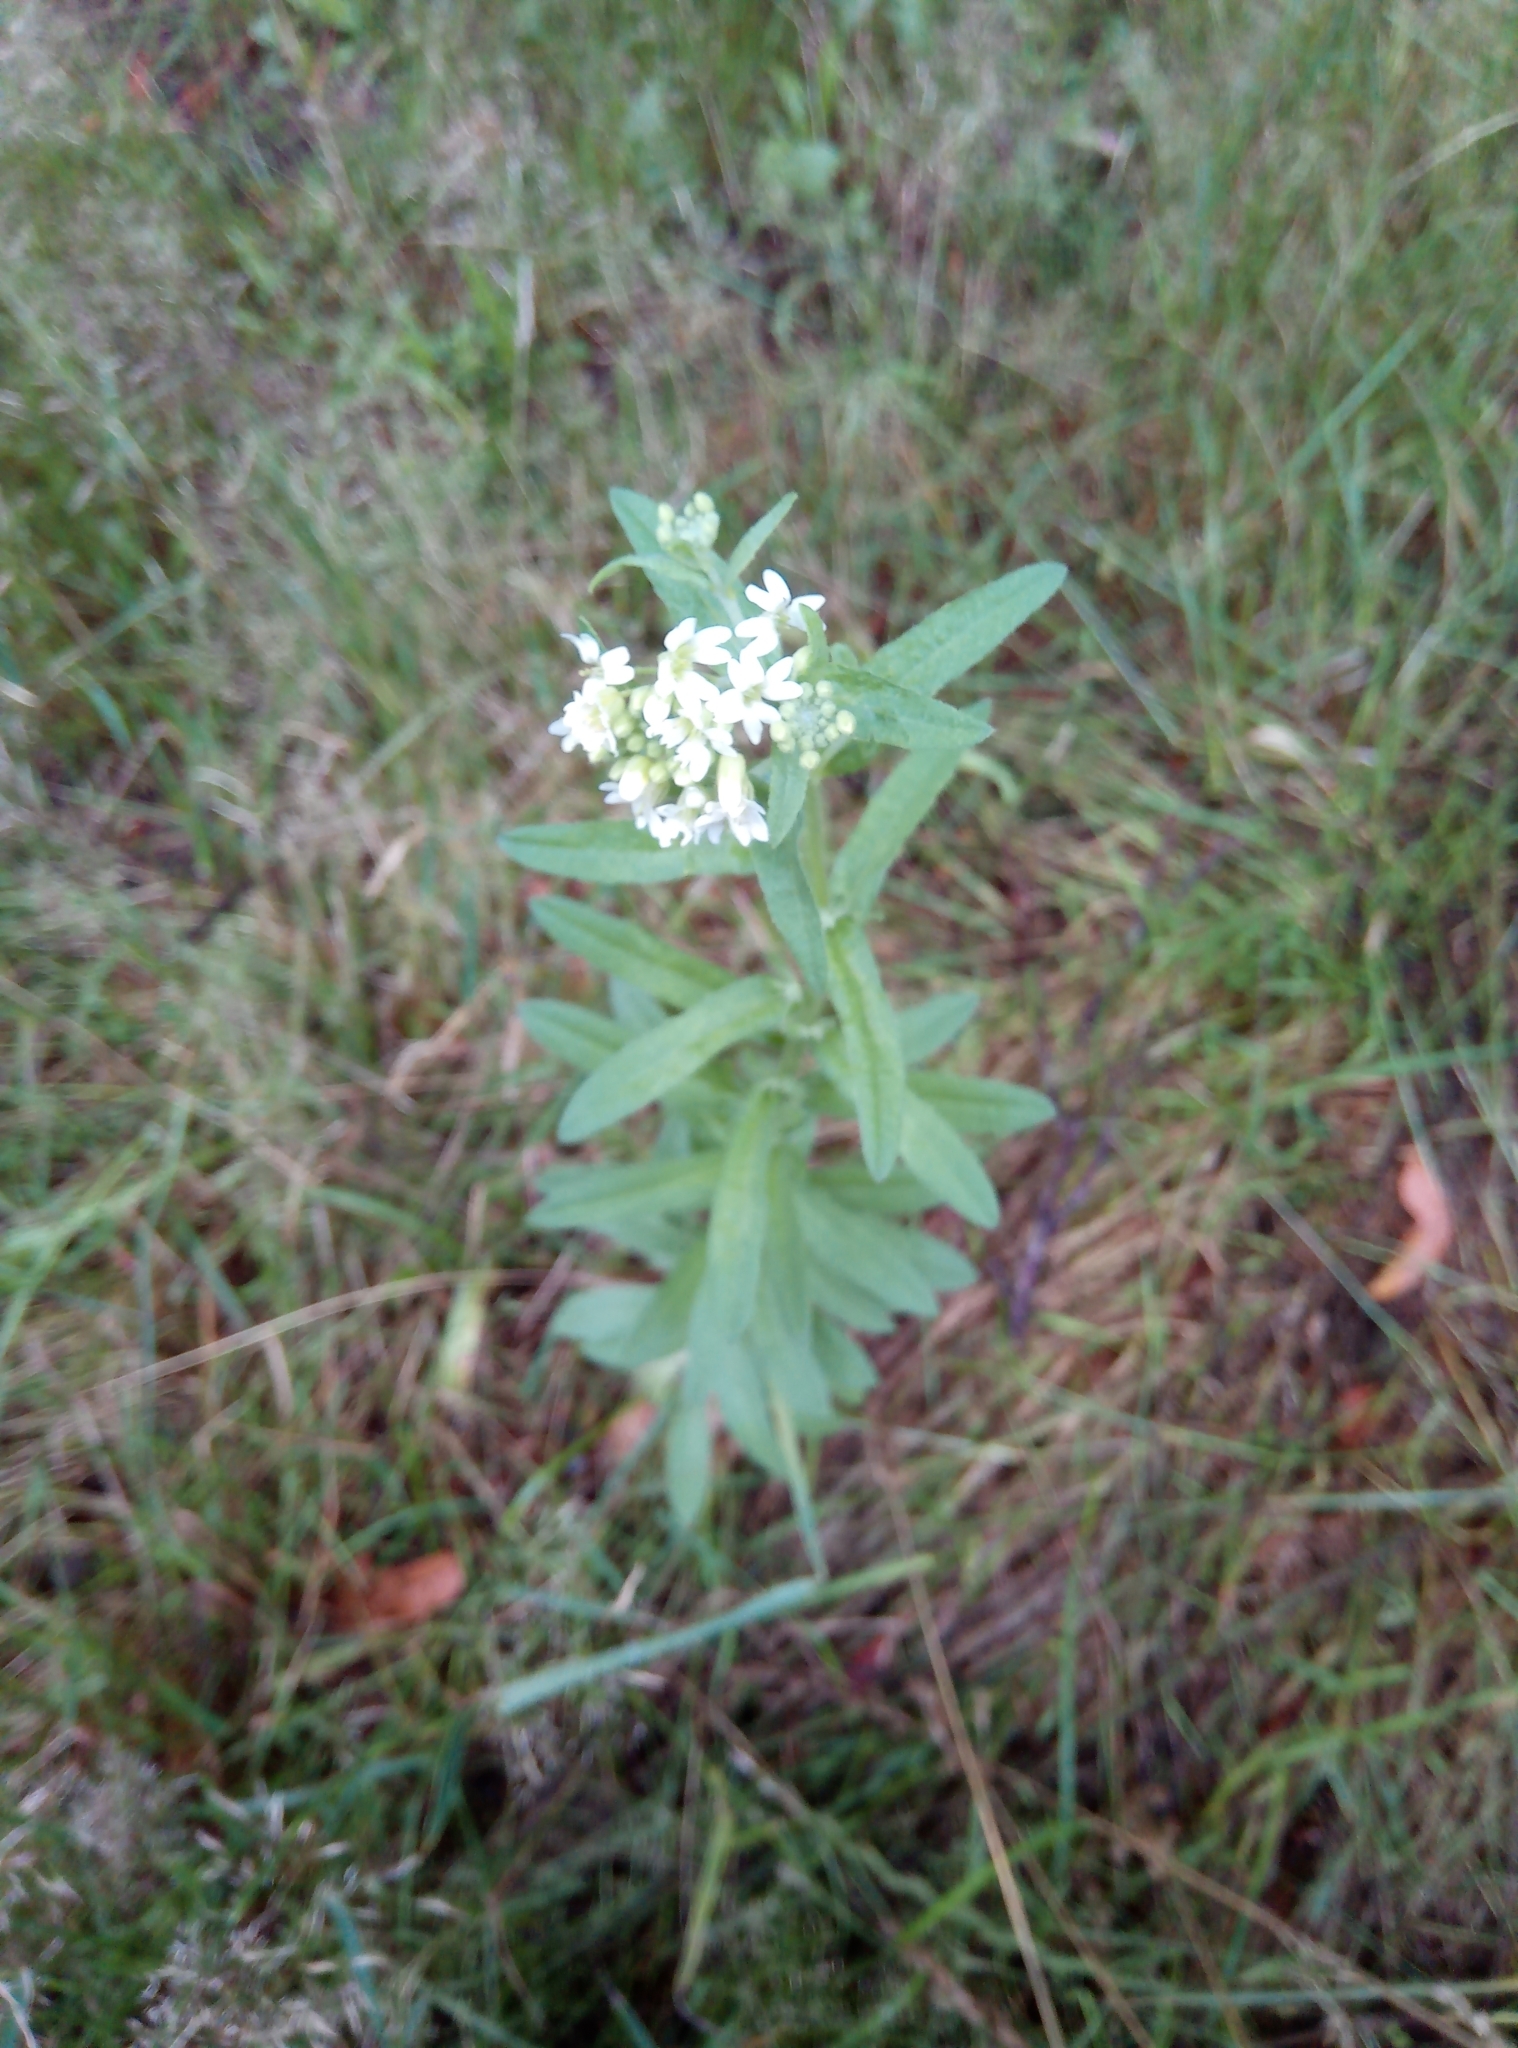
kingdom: Plantae
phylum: Tracheophyta
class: Magnoliopsida
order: Brassicales
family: Brassicaceae
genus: Berteroa
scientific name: Berteroa incana
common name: Hoary alison
